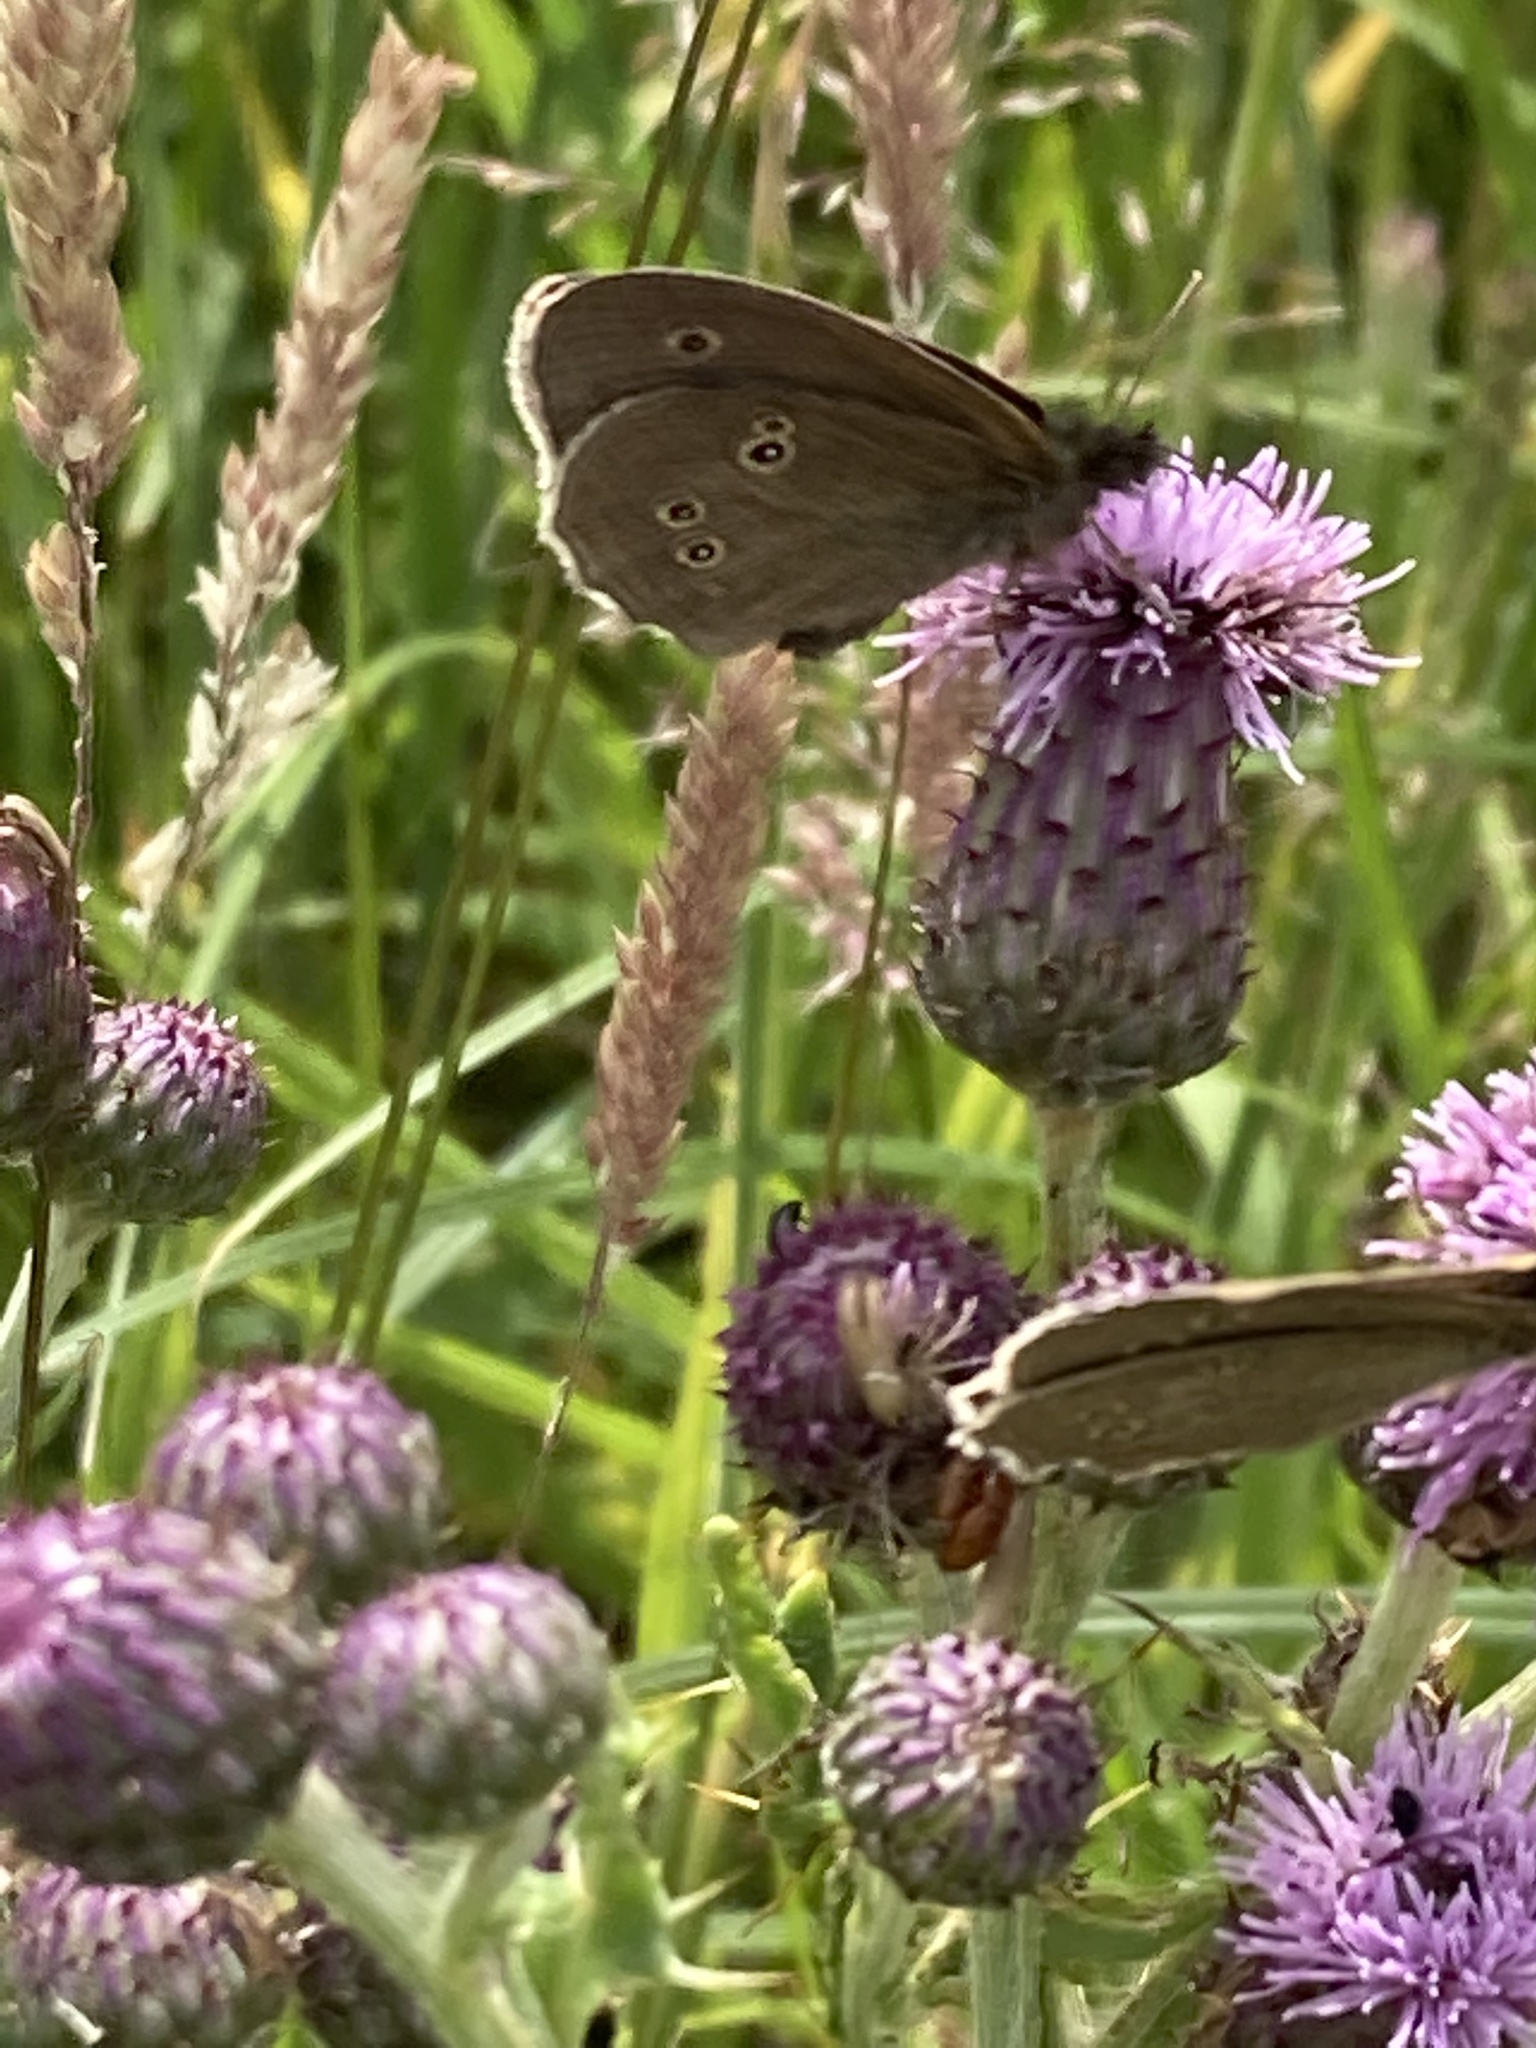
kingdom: Animalia
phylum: Arthropoda
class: Insecta
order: Lepidoptera
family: Nymphalidae
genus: Aphantopus
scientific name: Aphantopus hyperantus
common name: Ringlet
